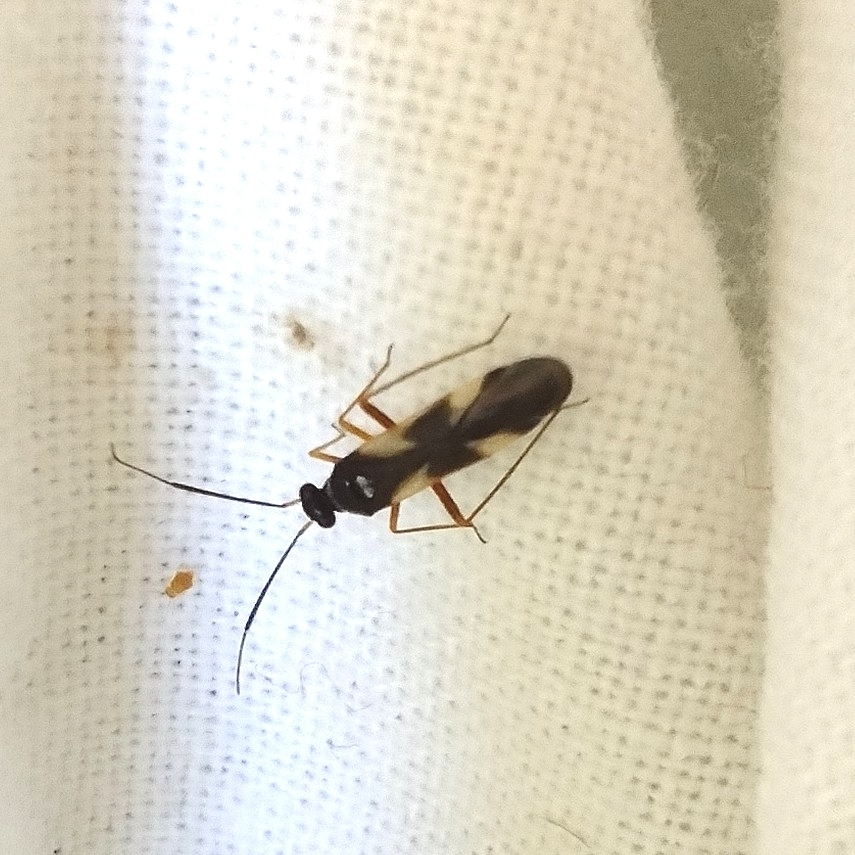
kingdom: Animalia
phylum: Arthropoda
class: Insecta
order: Hemiptera
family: Miridae
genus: Globiceps
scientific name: Globiceps flavomaculatus
